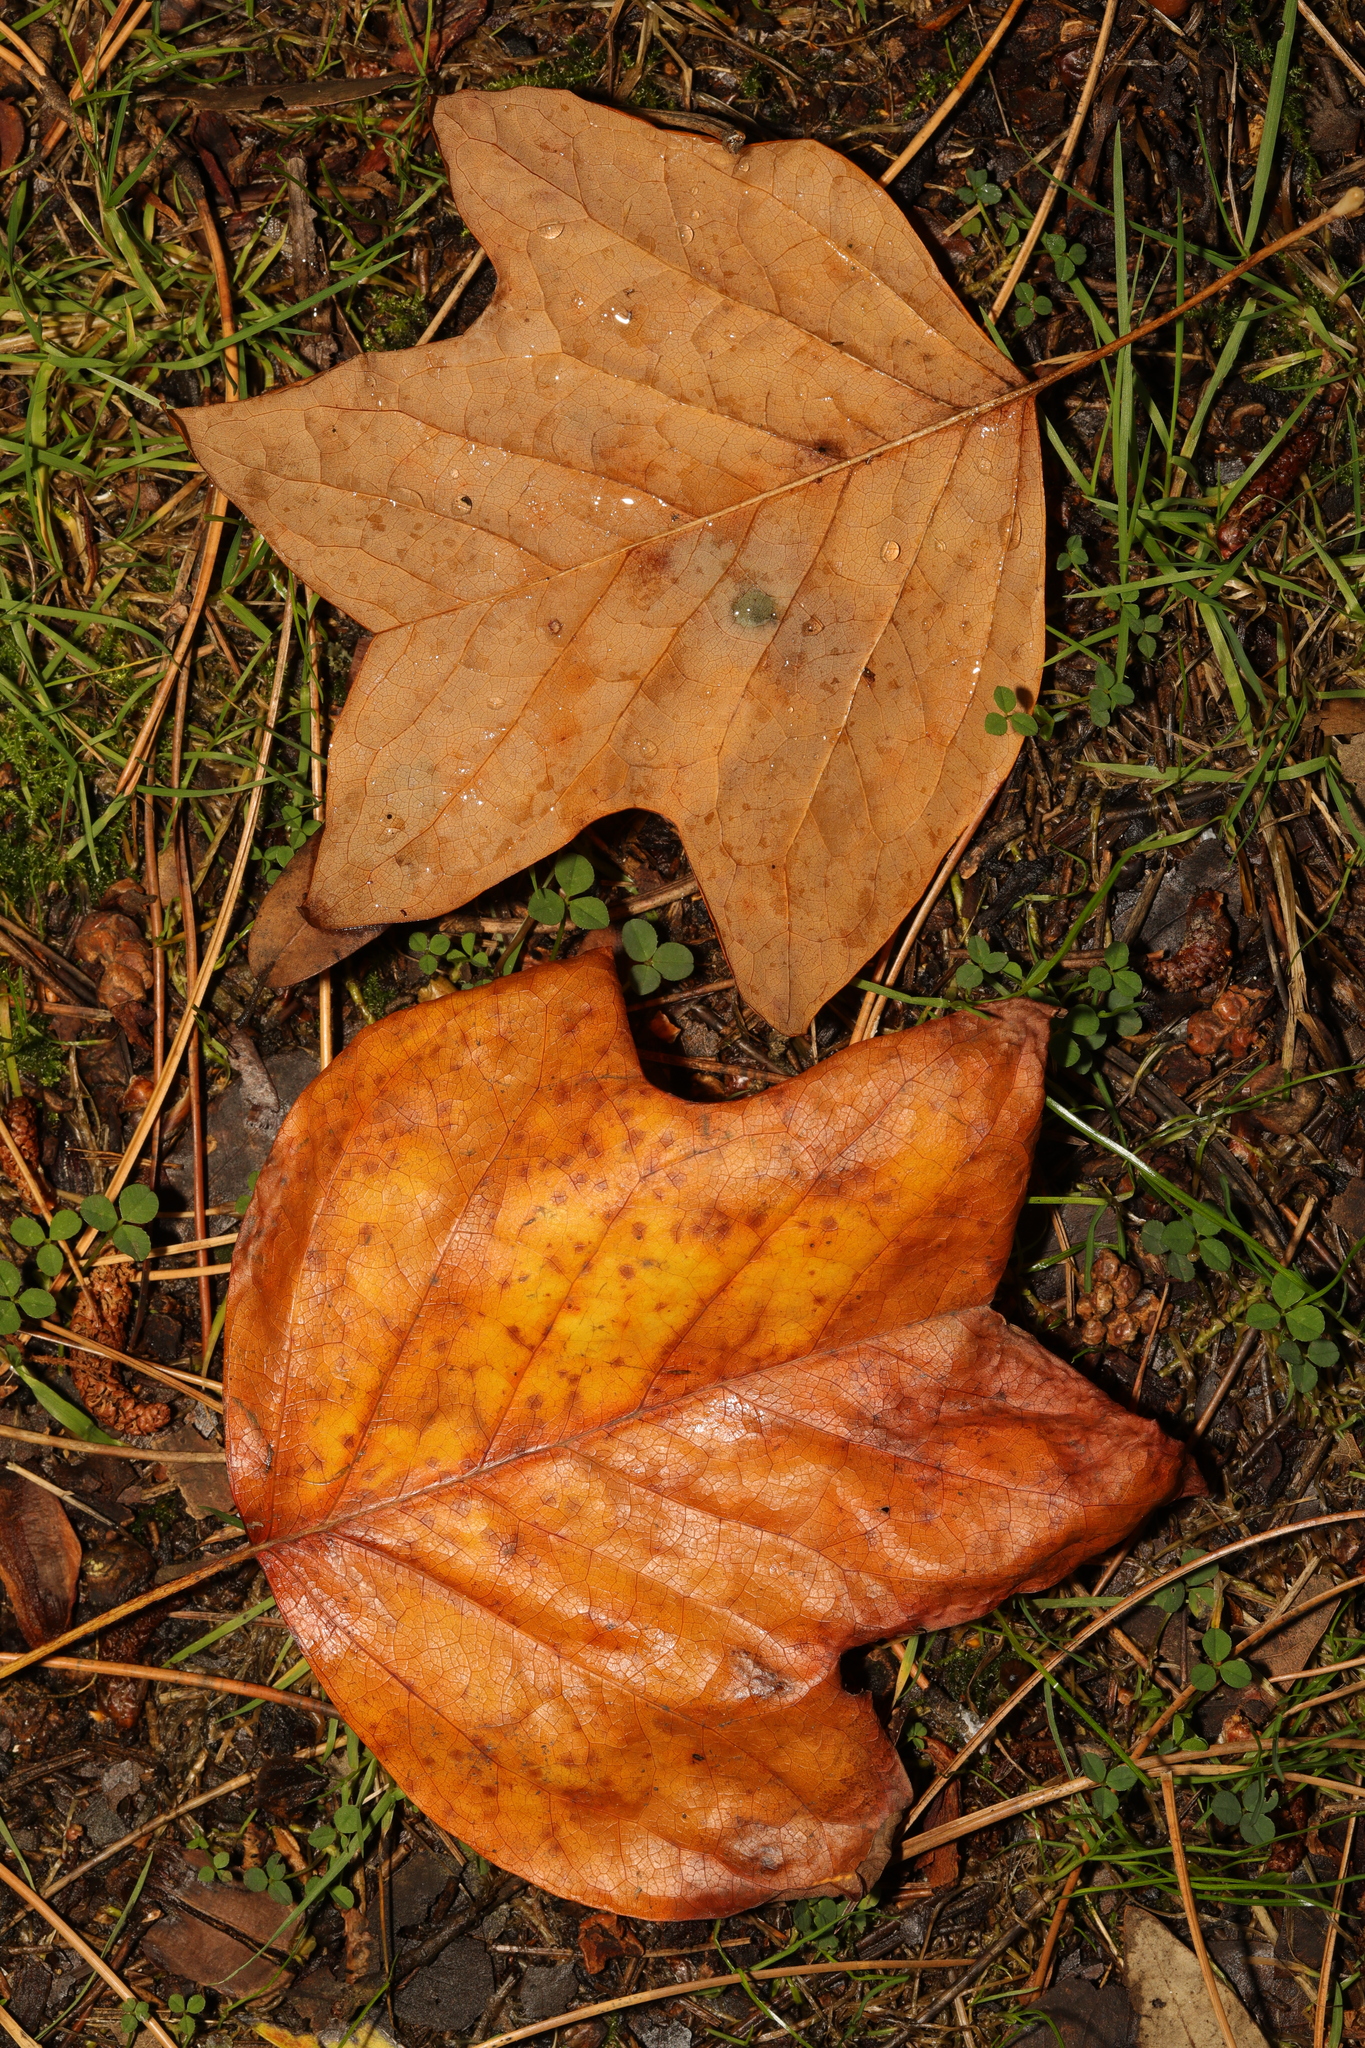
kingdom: Plantae
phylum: Tracheophyta
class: Magnoliopsida
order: Magnoliales
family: Magnoliaceae
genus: Liriodendron
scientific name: Liriodendron tulipifera
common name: Tulip tree
